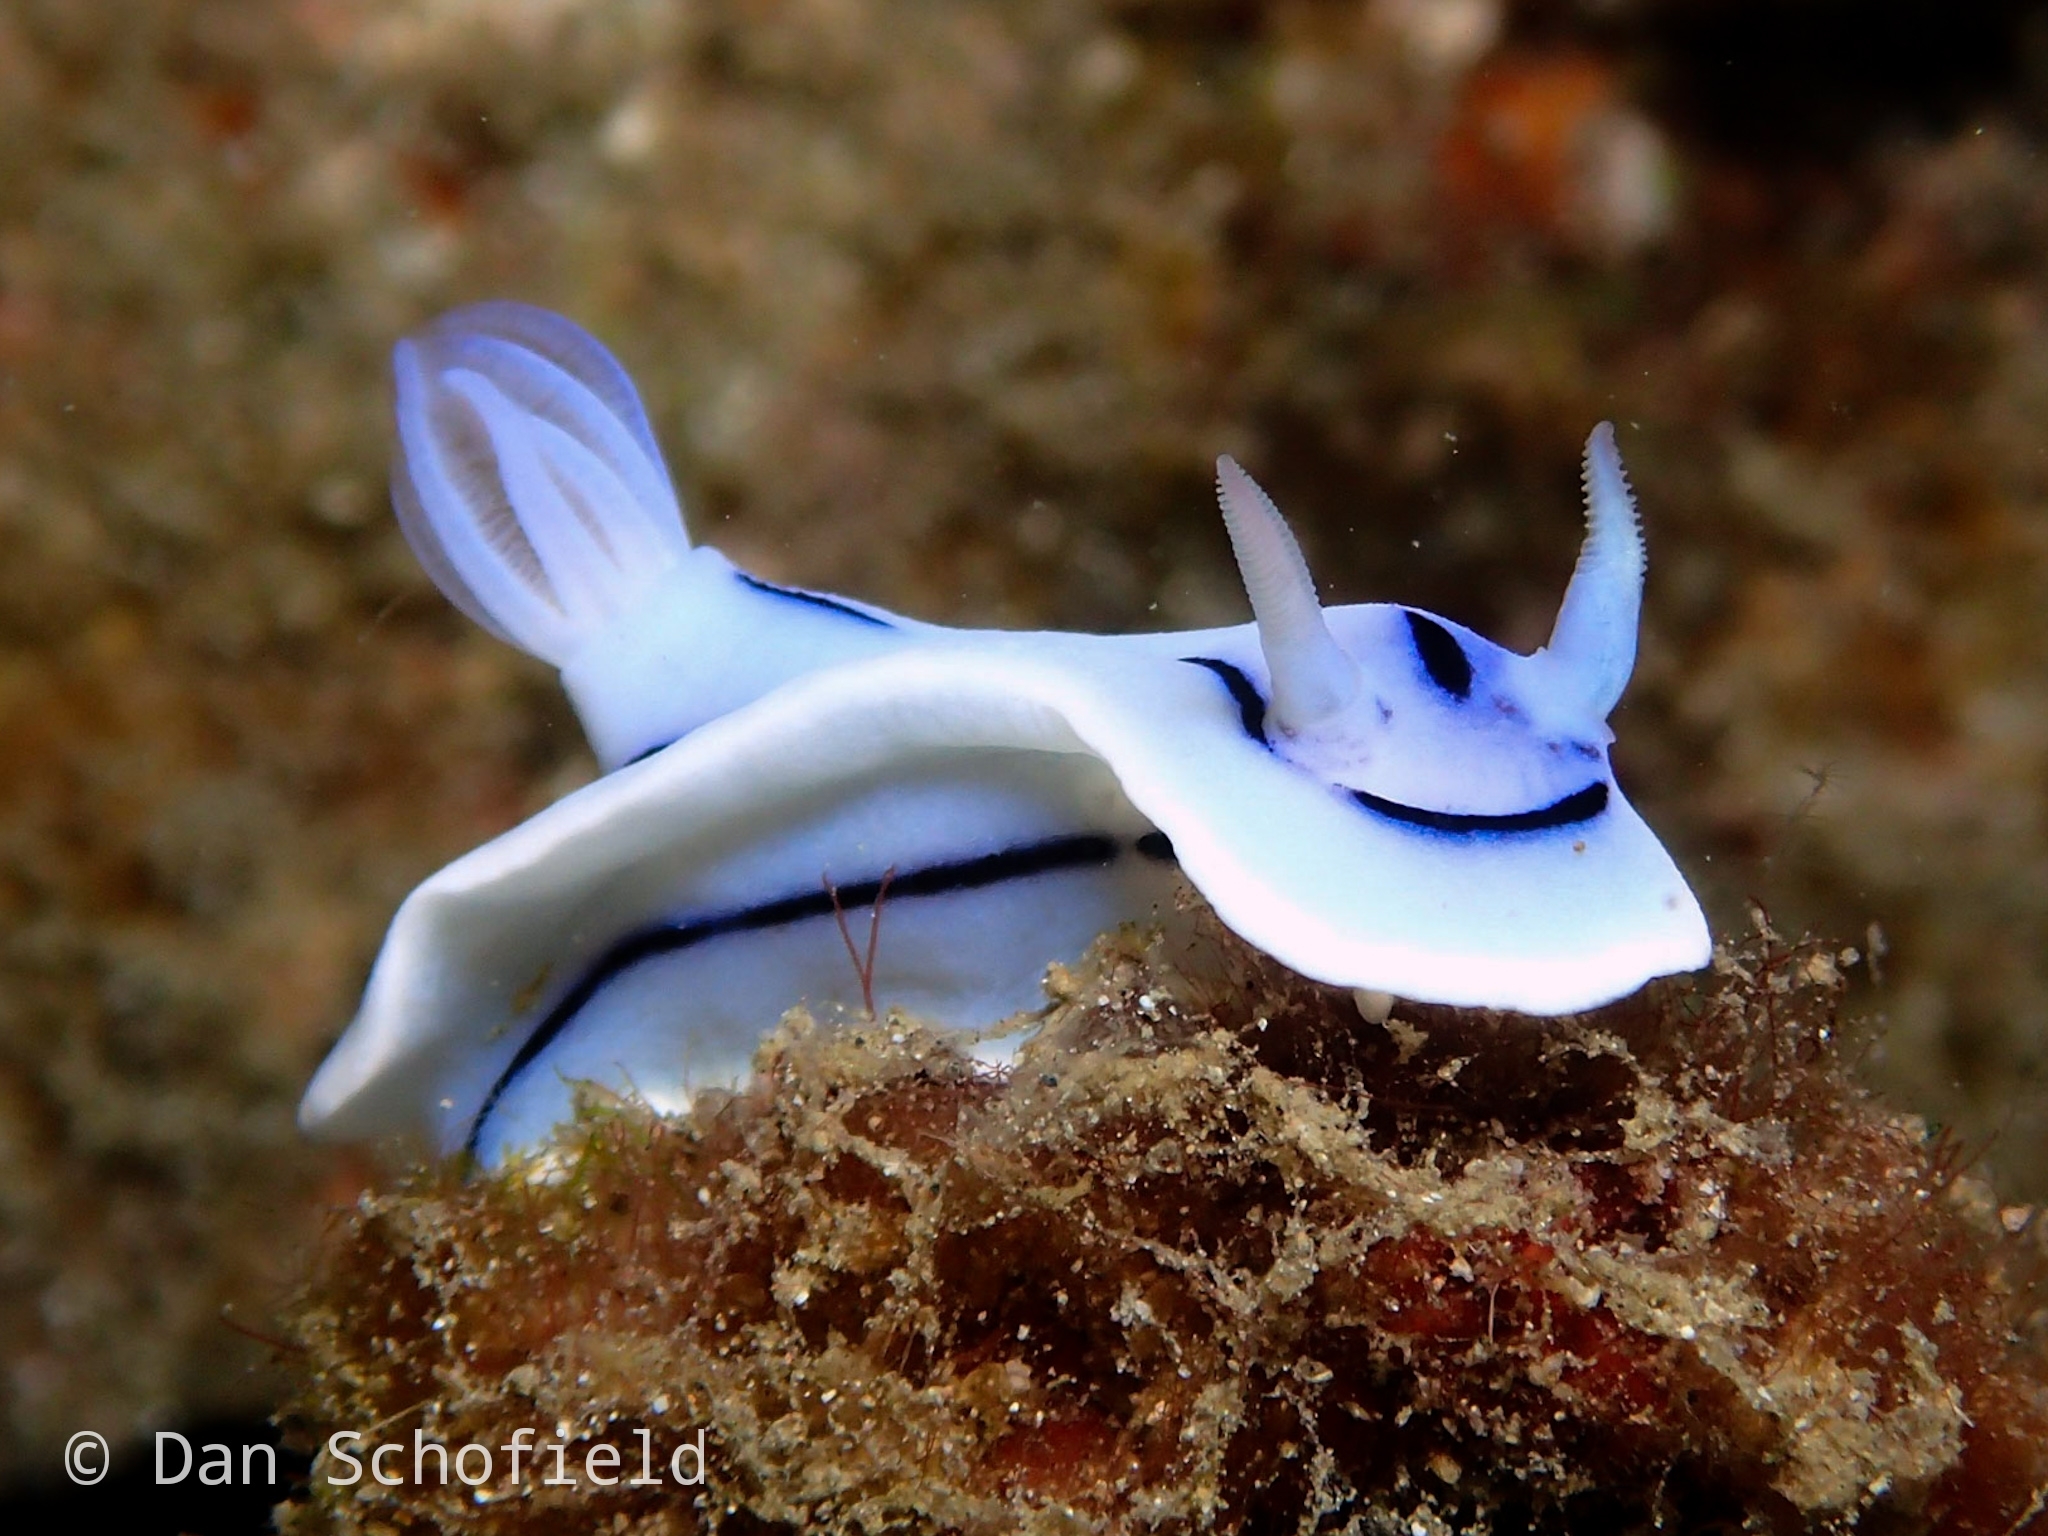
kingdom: Animalia
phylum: Mollusca
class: Gastropoda
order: Nudibranchia
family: Chromodorididae
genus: Chromodoris
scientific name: Chromodoris lochi
